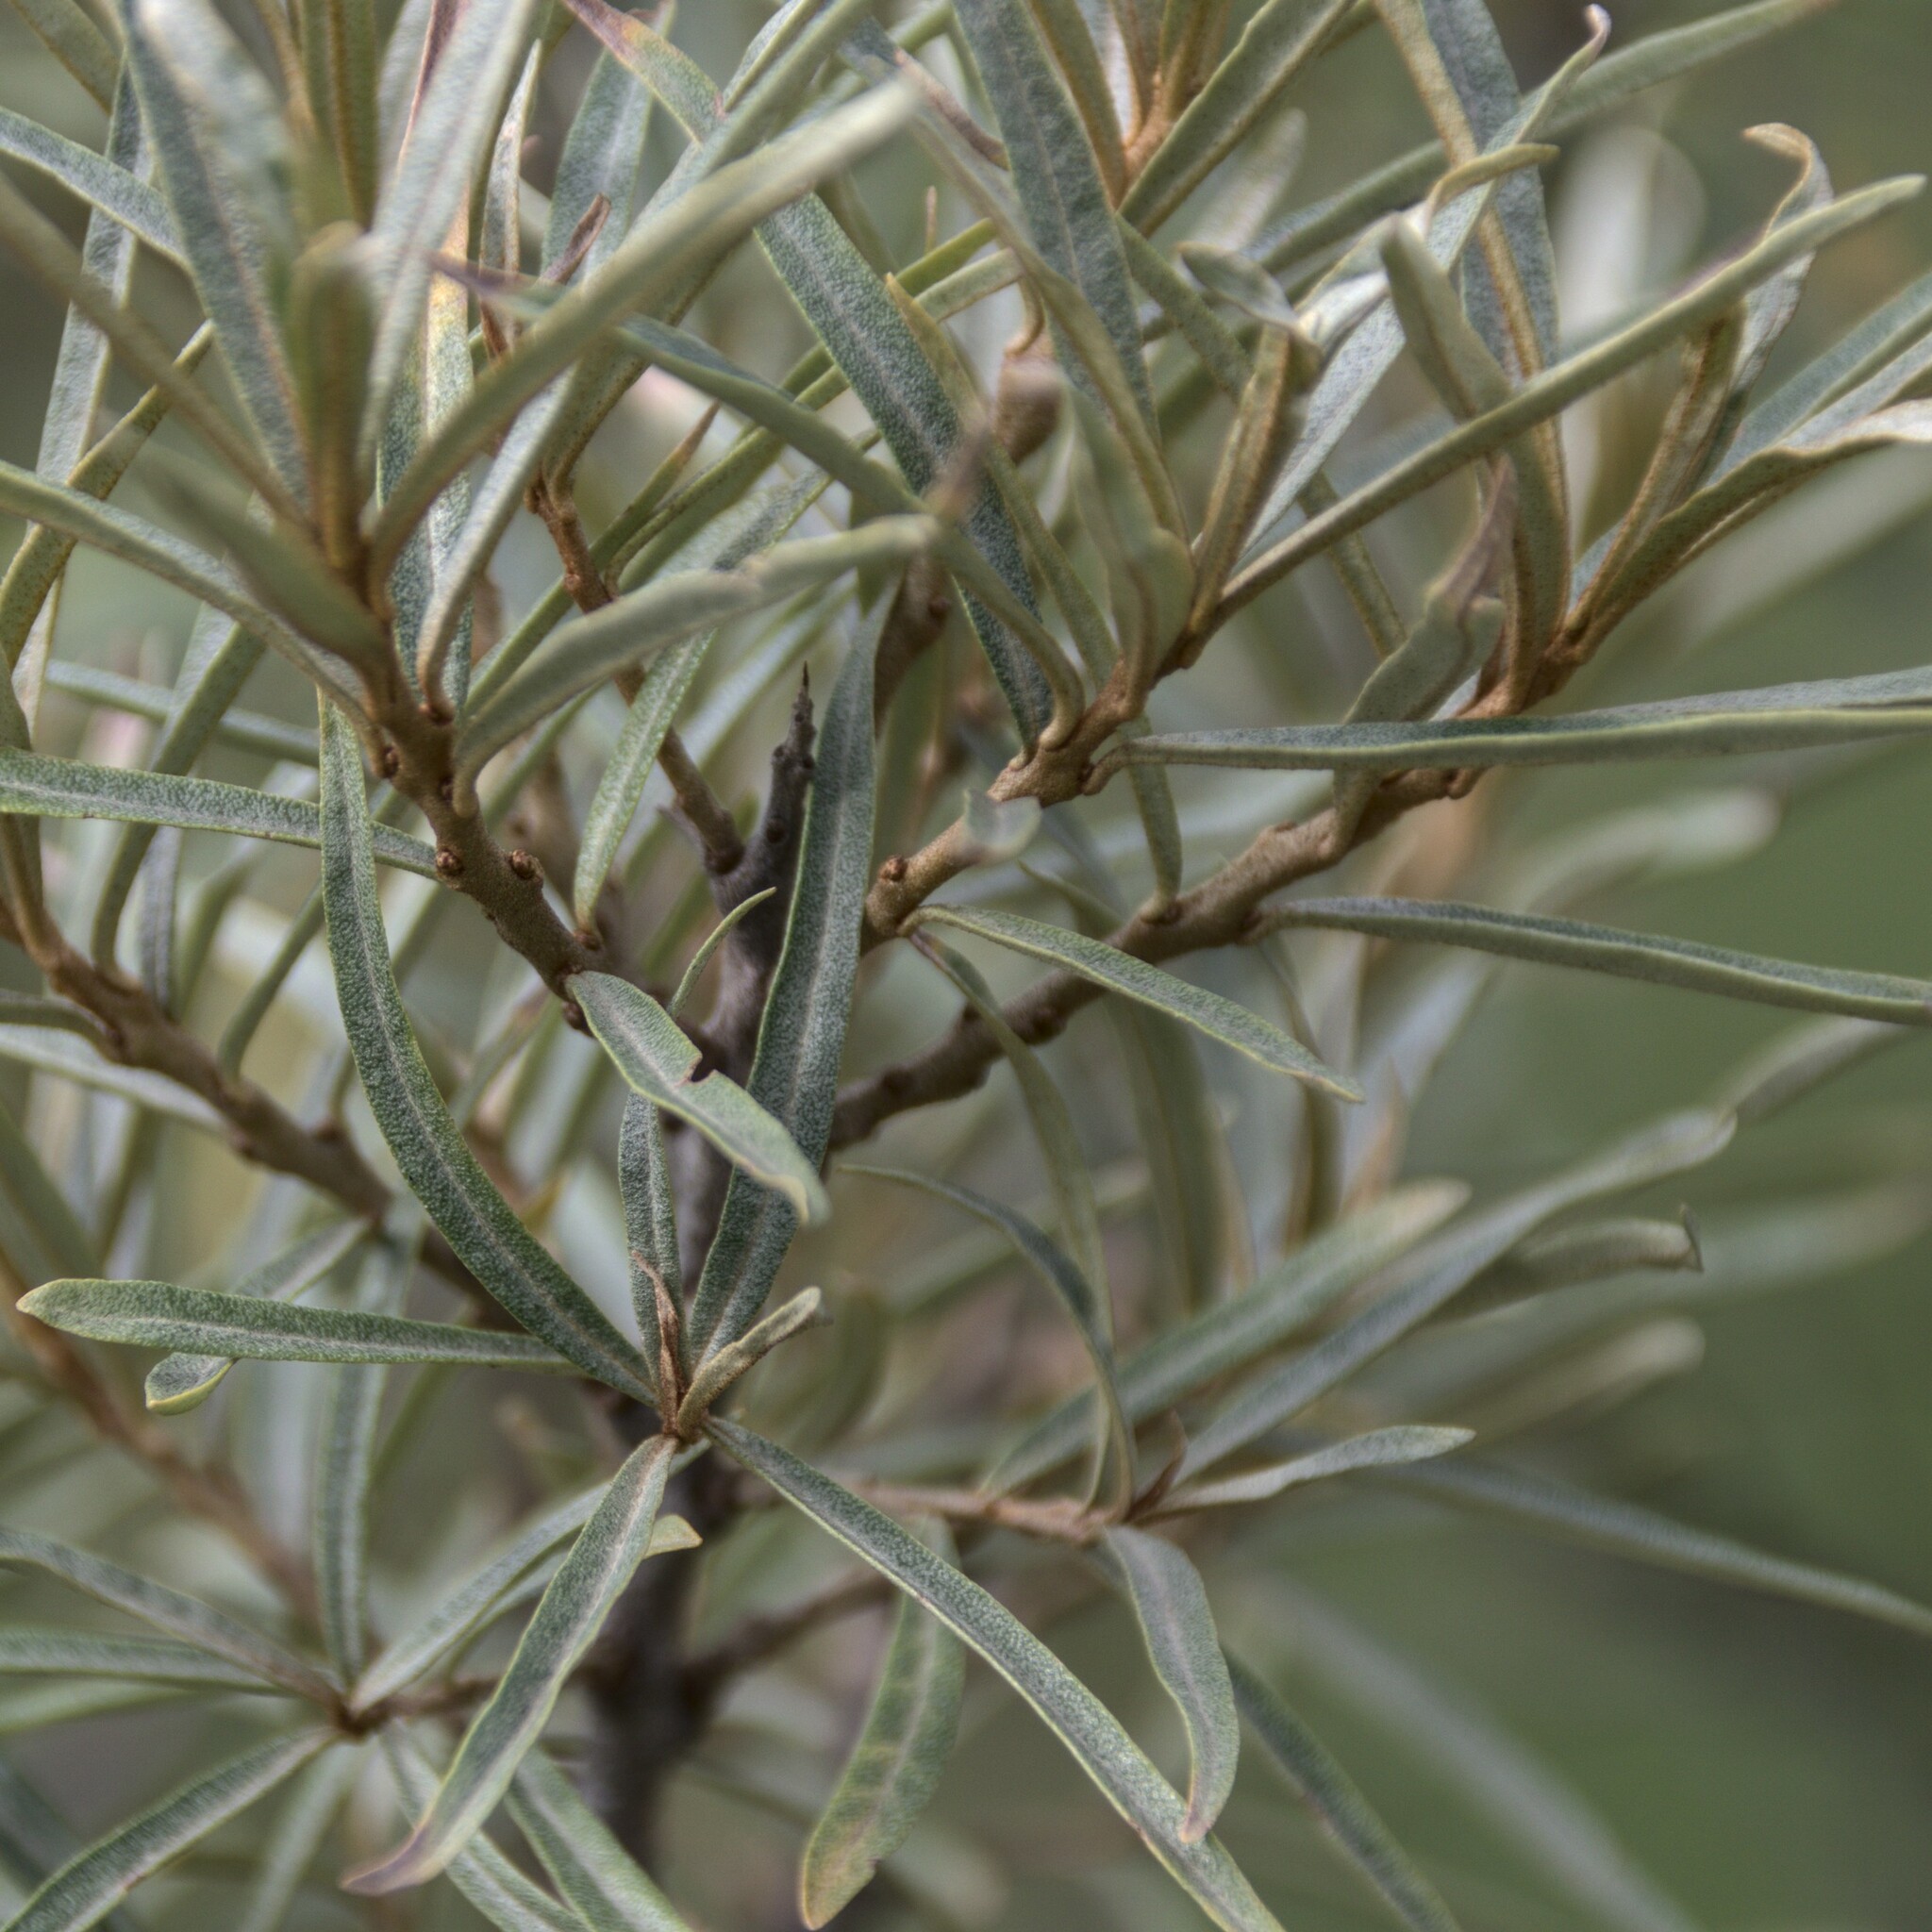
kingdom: Plantae
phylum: Tracheophyta
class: Magnoliopsida
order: Rosales
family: Elaeagnaceae
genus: Hippophae
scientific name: Hippophae rhamnoides
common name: Sea-buckthorn
